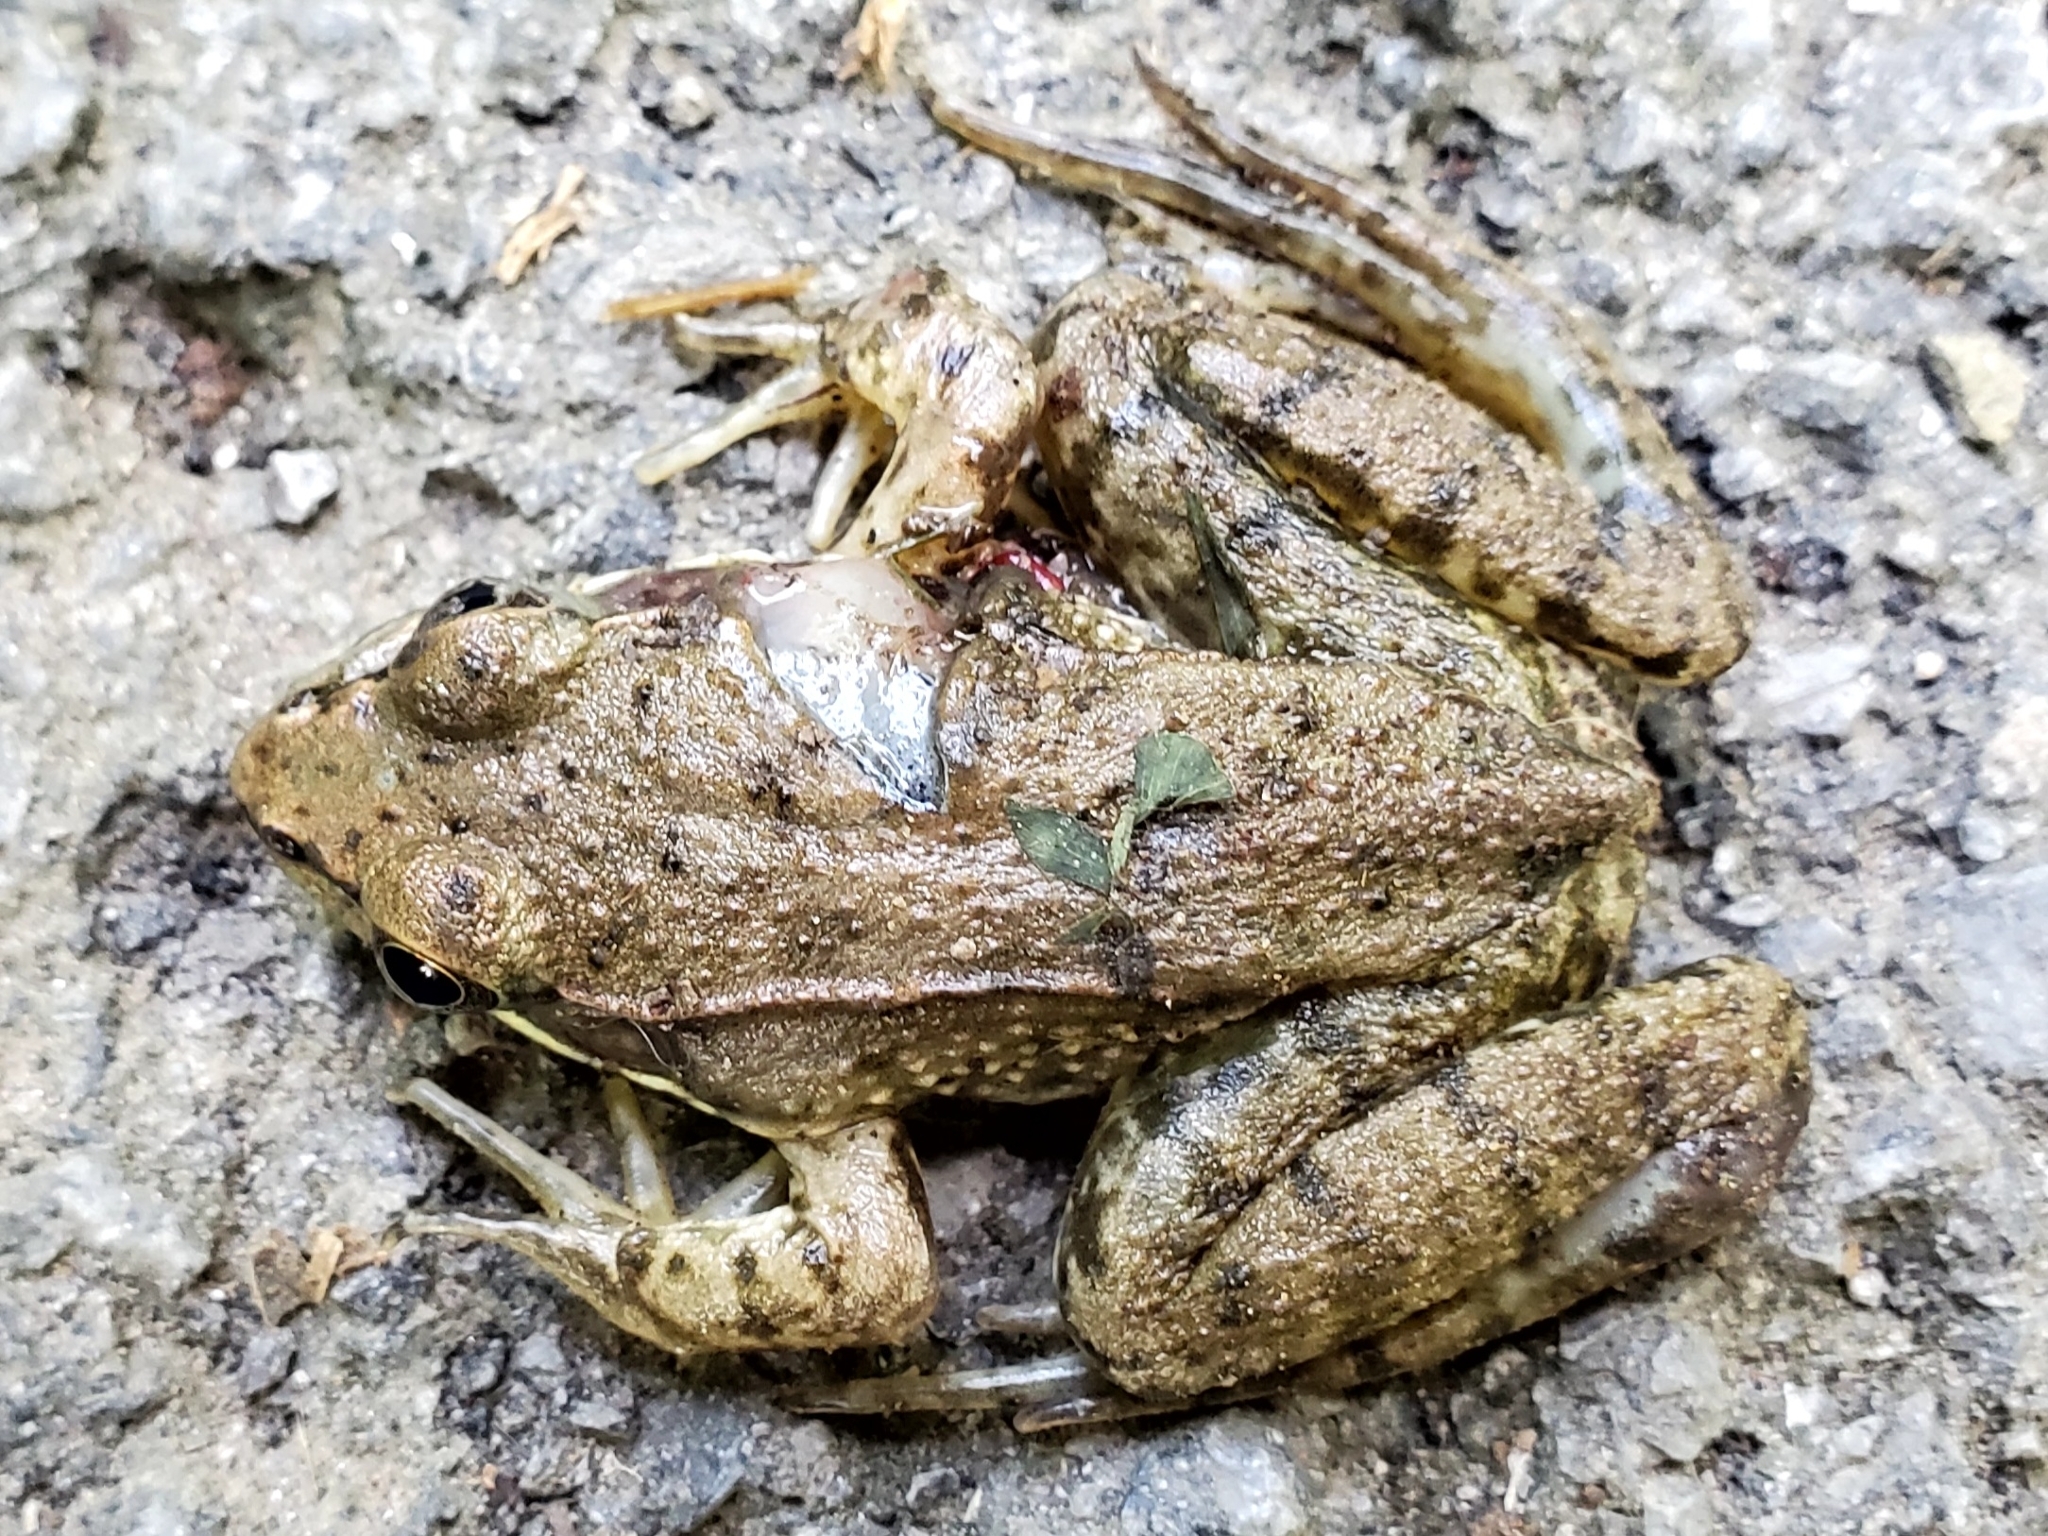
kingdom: Animalia
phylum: Chordata
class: Amphibia
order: Anura
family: Ranidae
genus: Lithobates
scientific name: Lithobates clamitans
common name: Green frog
